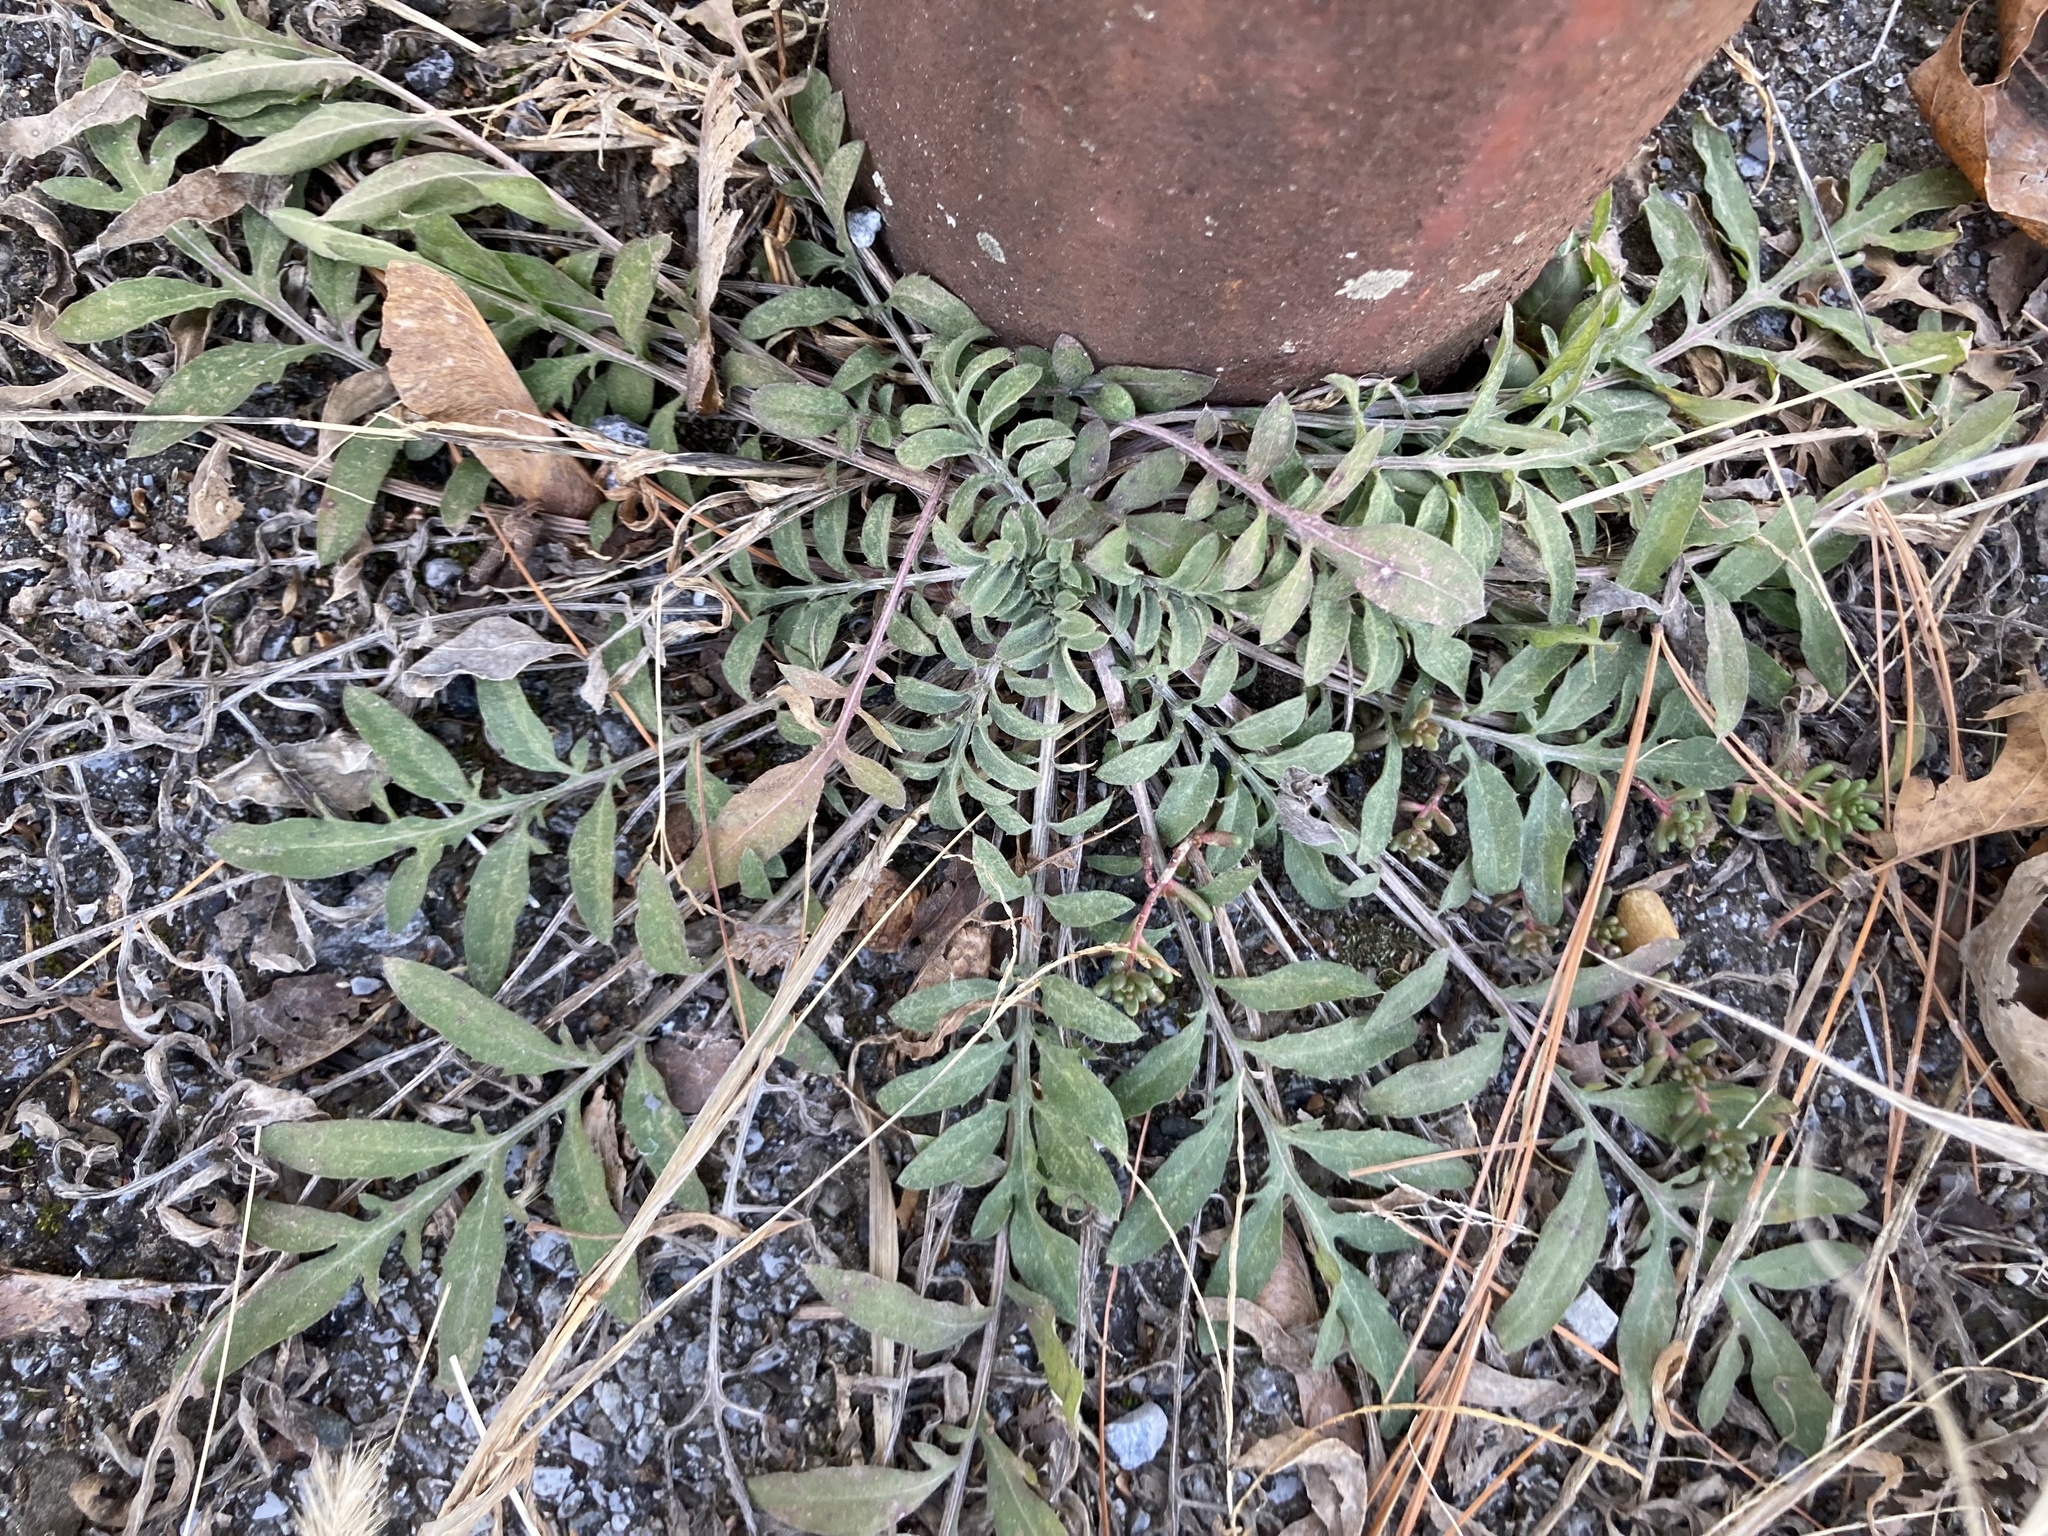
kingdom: Plantae
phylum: Tracheophyta
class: Magnoliopsida
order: Asterales
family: Asteraceae
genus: Centaurea
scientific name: Centaurea stoebe
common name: Spotted knapweed
